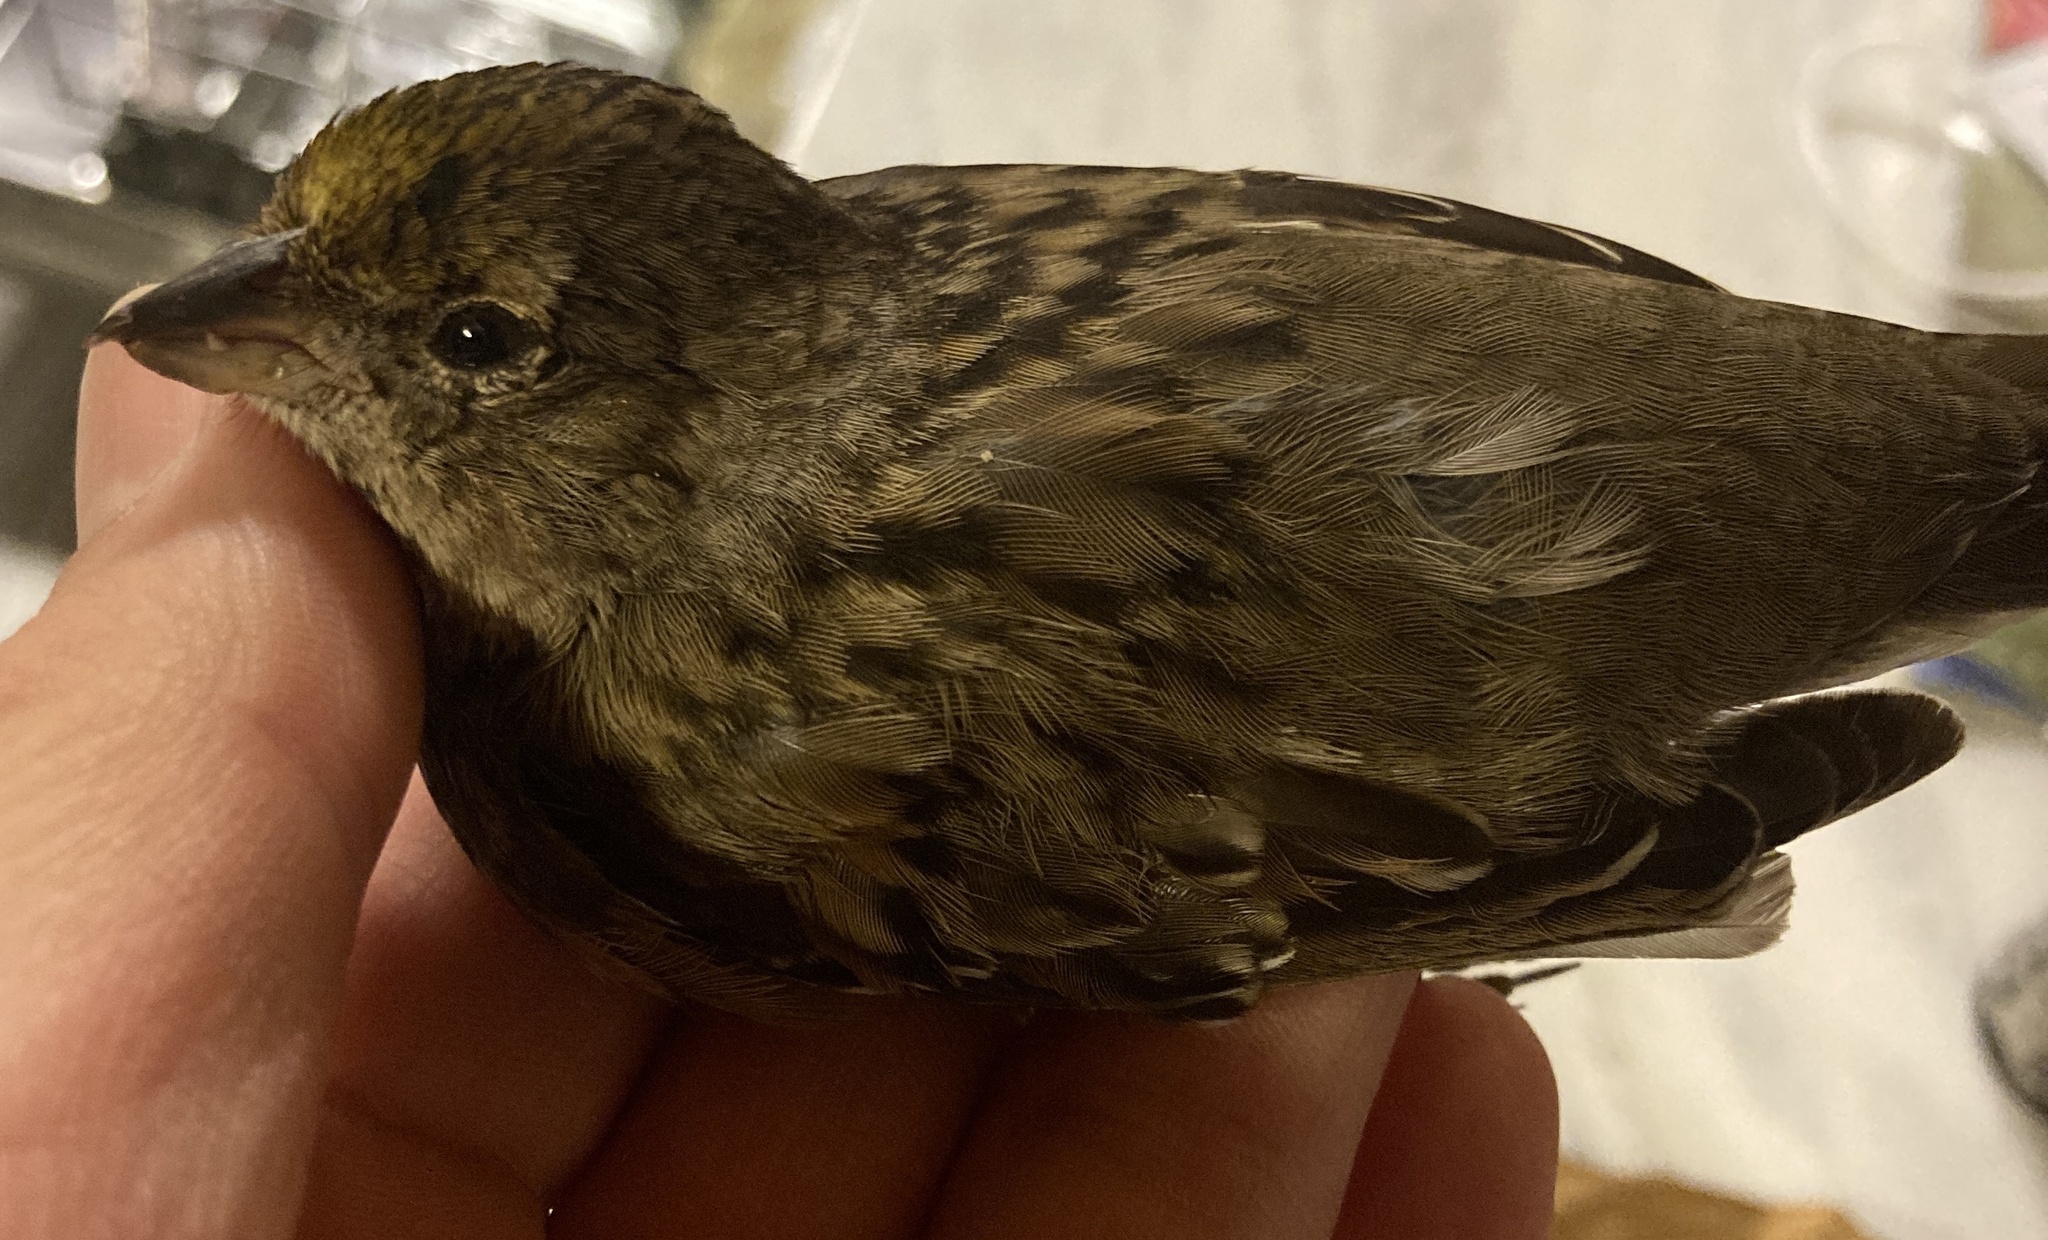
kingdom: Animalia
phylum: Chordata
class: Aves
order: Passeriformes
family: Passerellidae
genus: Zonotrichia
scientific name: Zonotrichia atricapilla
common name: Golden-crowned sparrow
